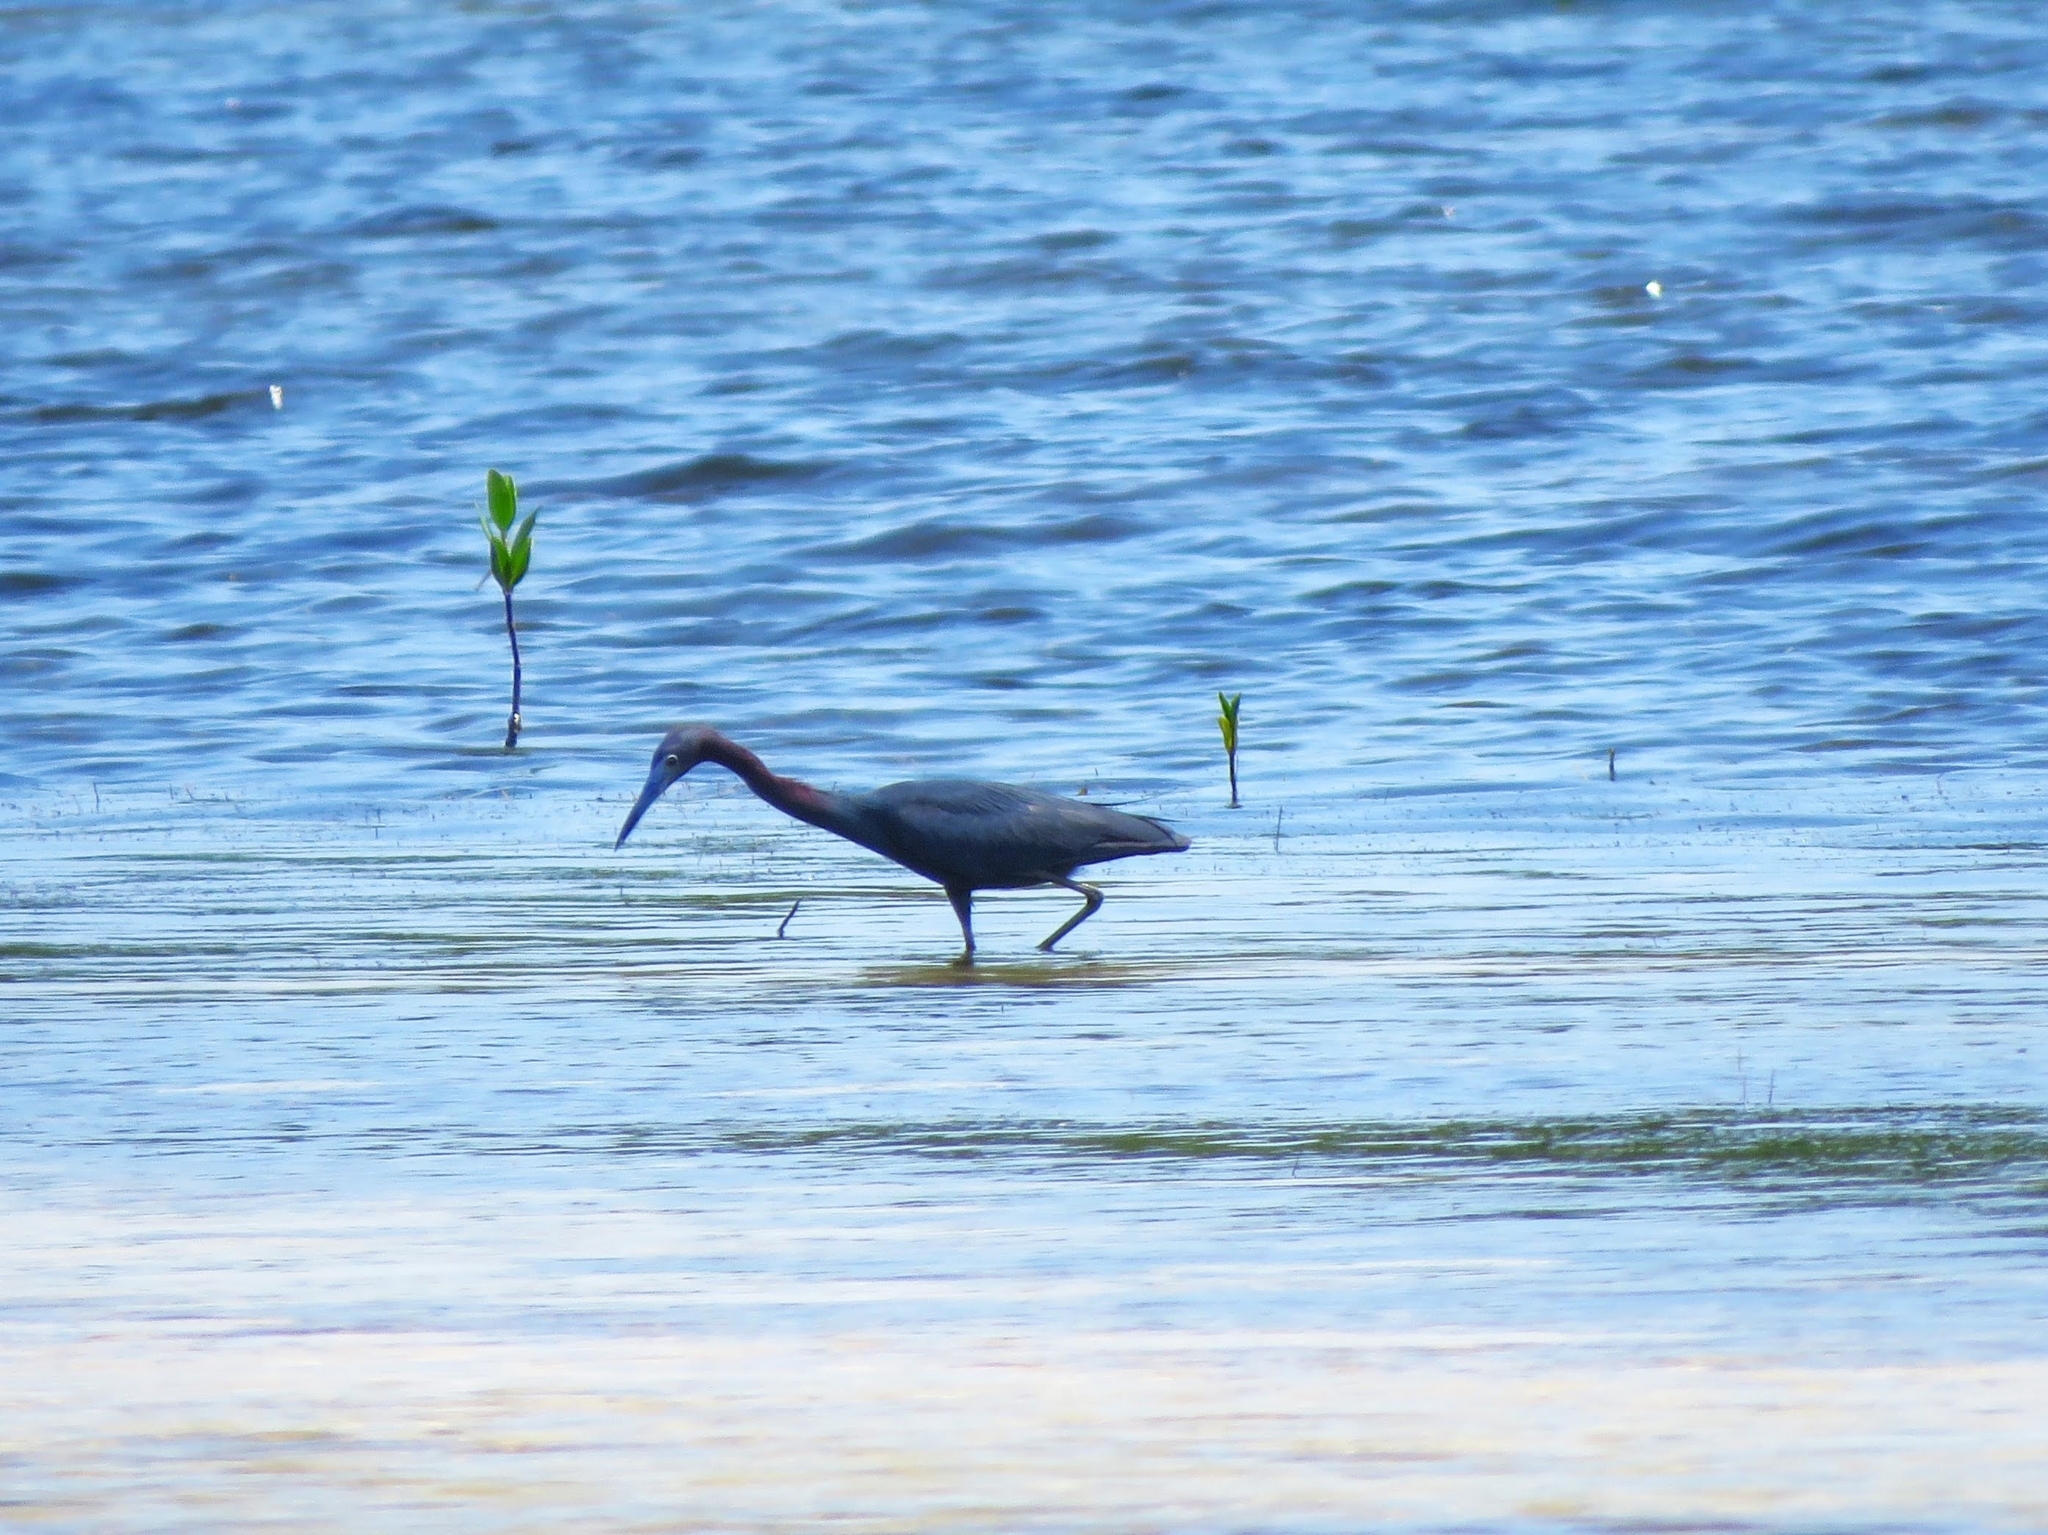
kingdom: Animalia
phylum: Chordata
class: Aves
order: Pelecaniformes
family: Ardeidae
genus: Egretta
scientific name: Egretta caerulea
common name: Little blue heron
